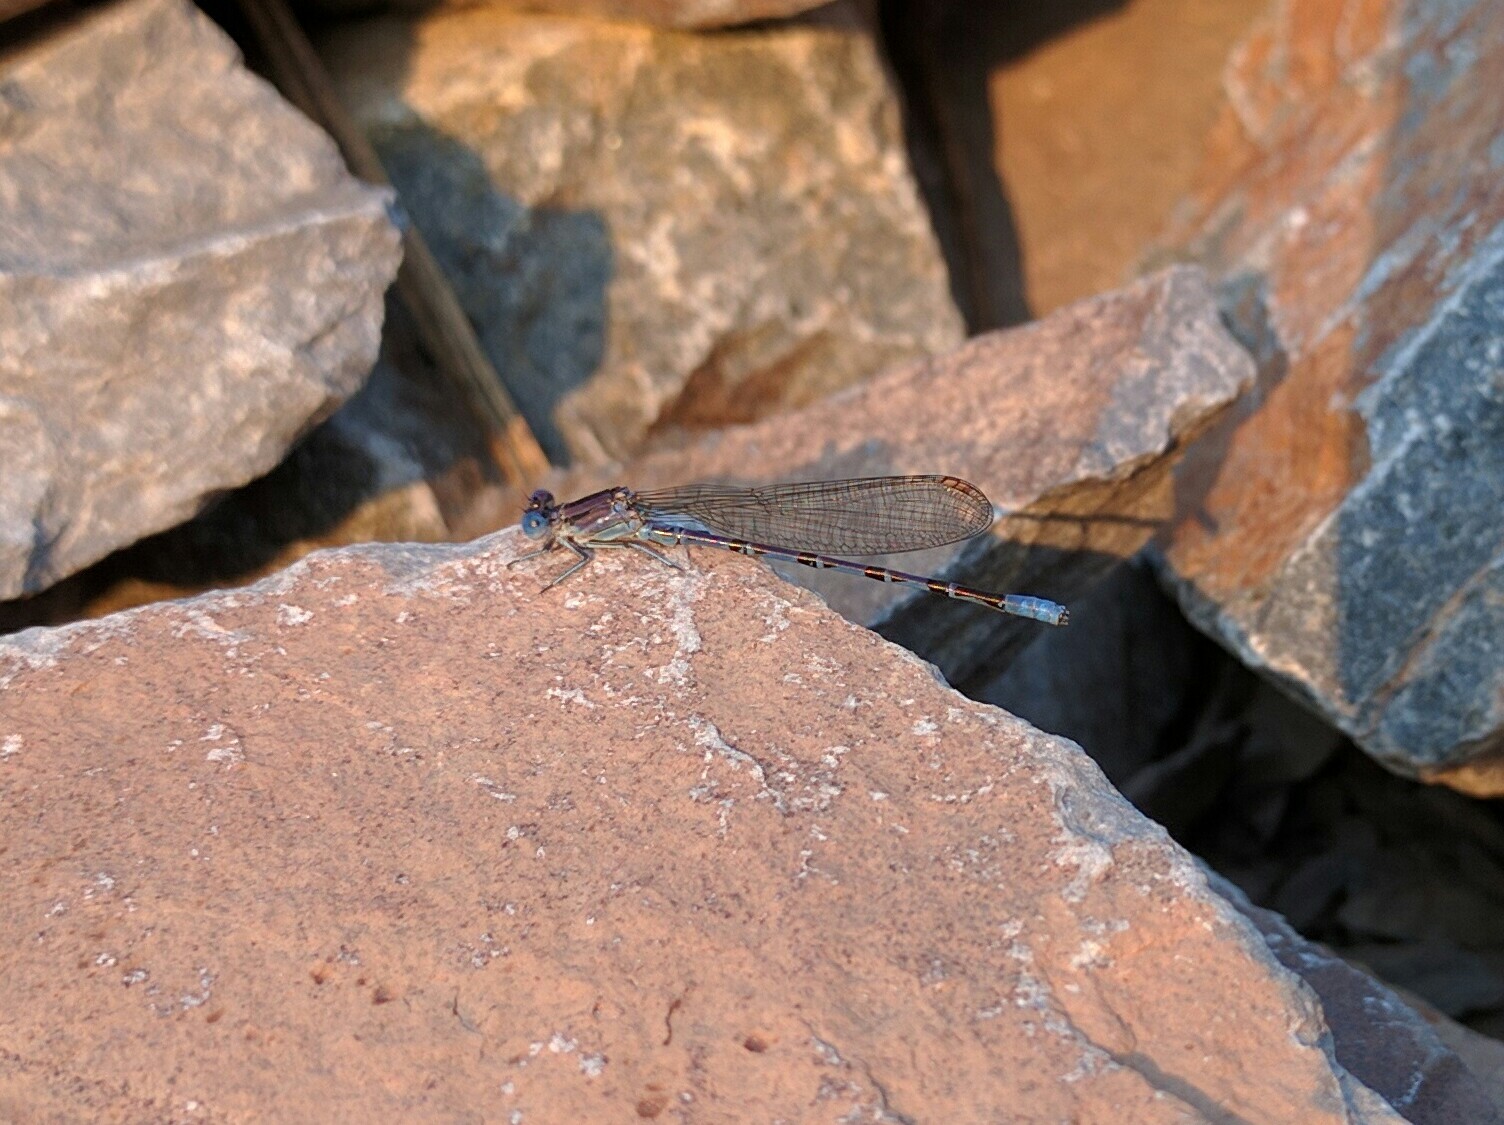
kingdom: Animalia
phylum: Arthropoda
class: Insecta
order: Odonata
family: Coenagrionidae
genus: Argia
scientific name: Argia vivida
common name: Vivid dancer
